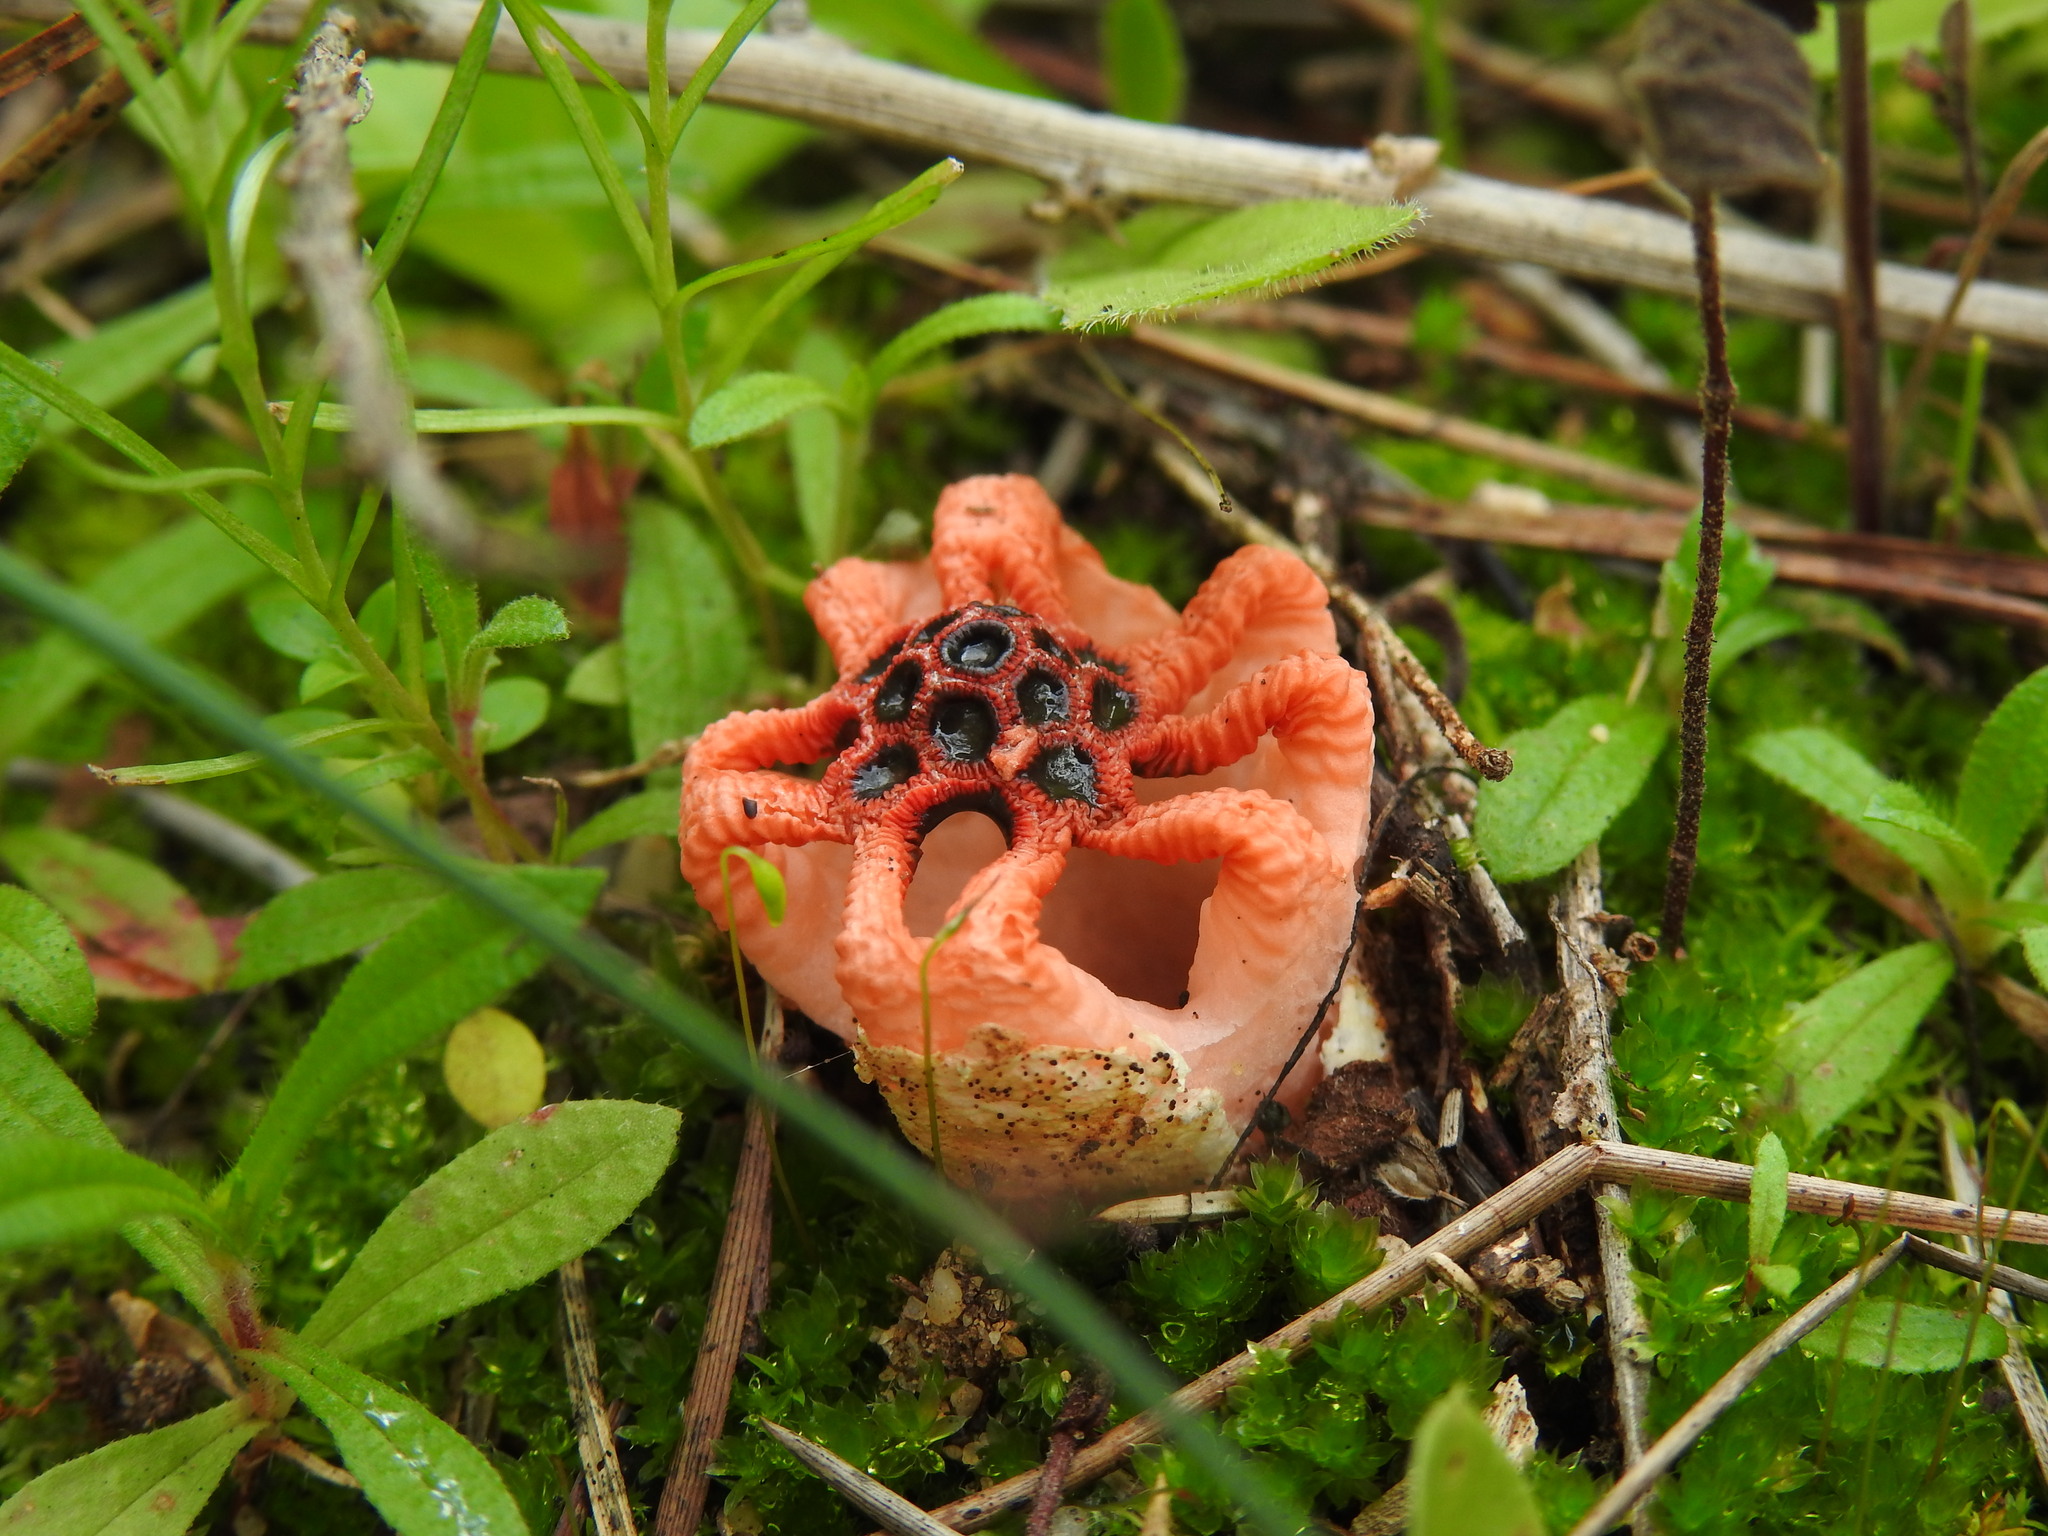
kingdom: Fungi
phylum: Basidiomycota
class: Agaricomycetes
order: Phallales
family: Phallaceae
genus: Colus
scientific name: Colus hirudinosus
